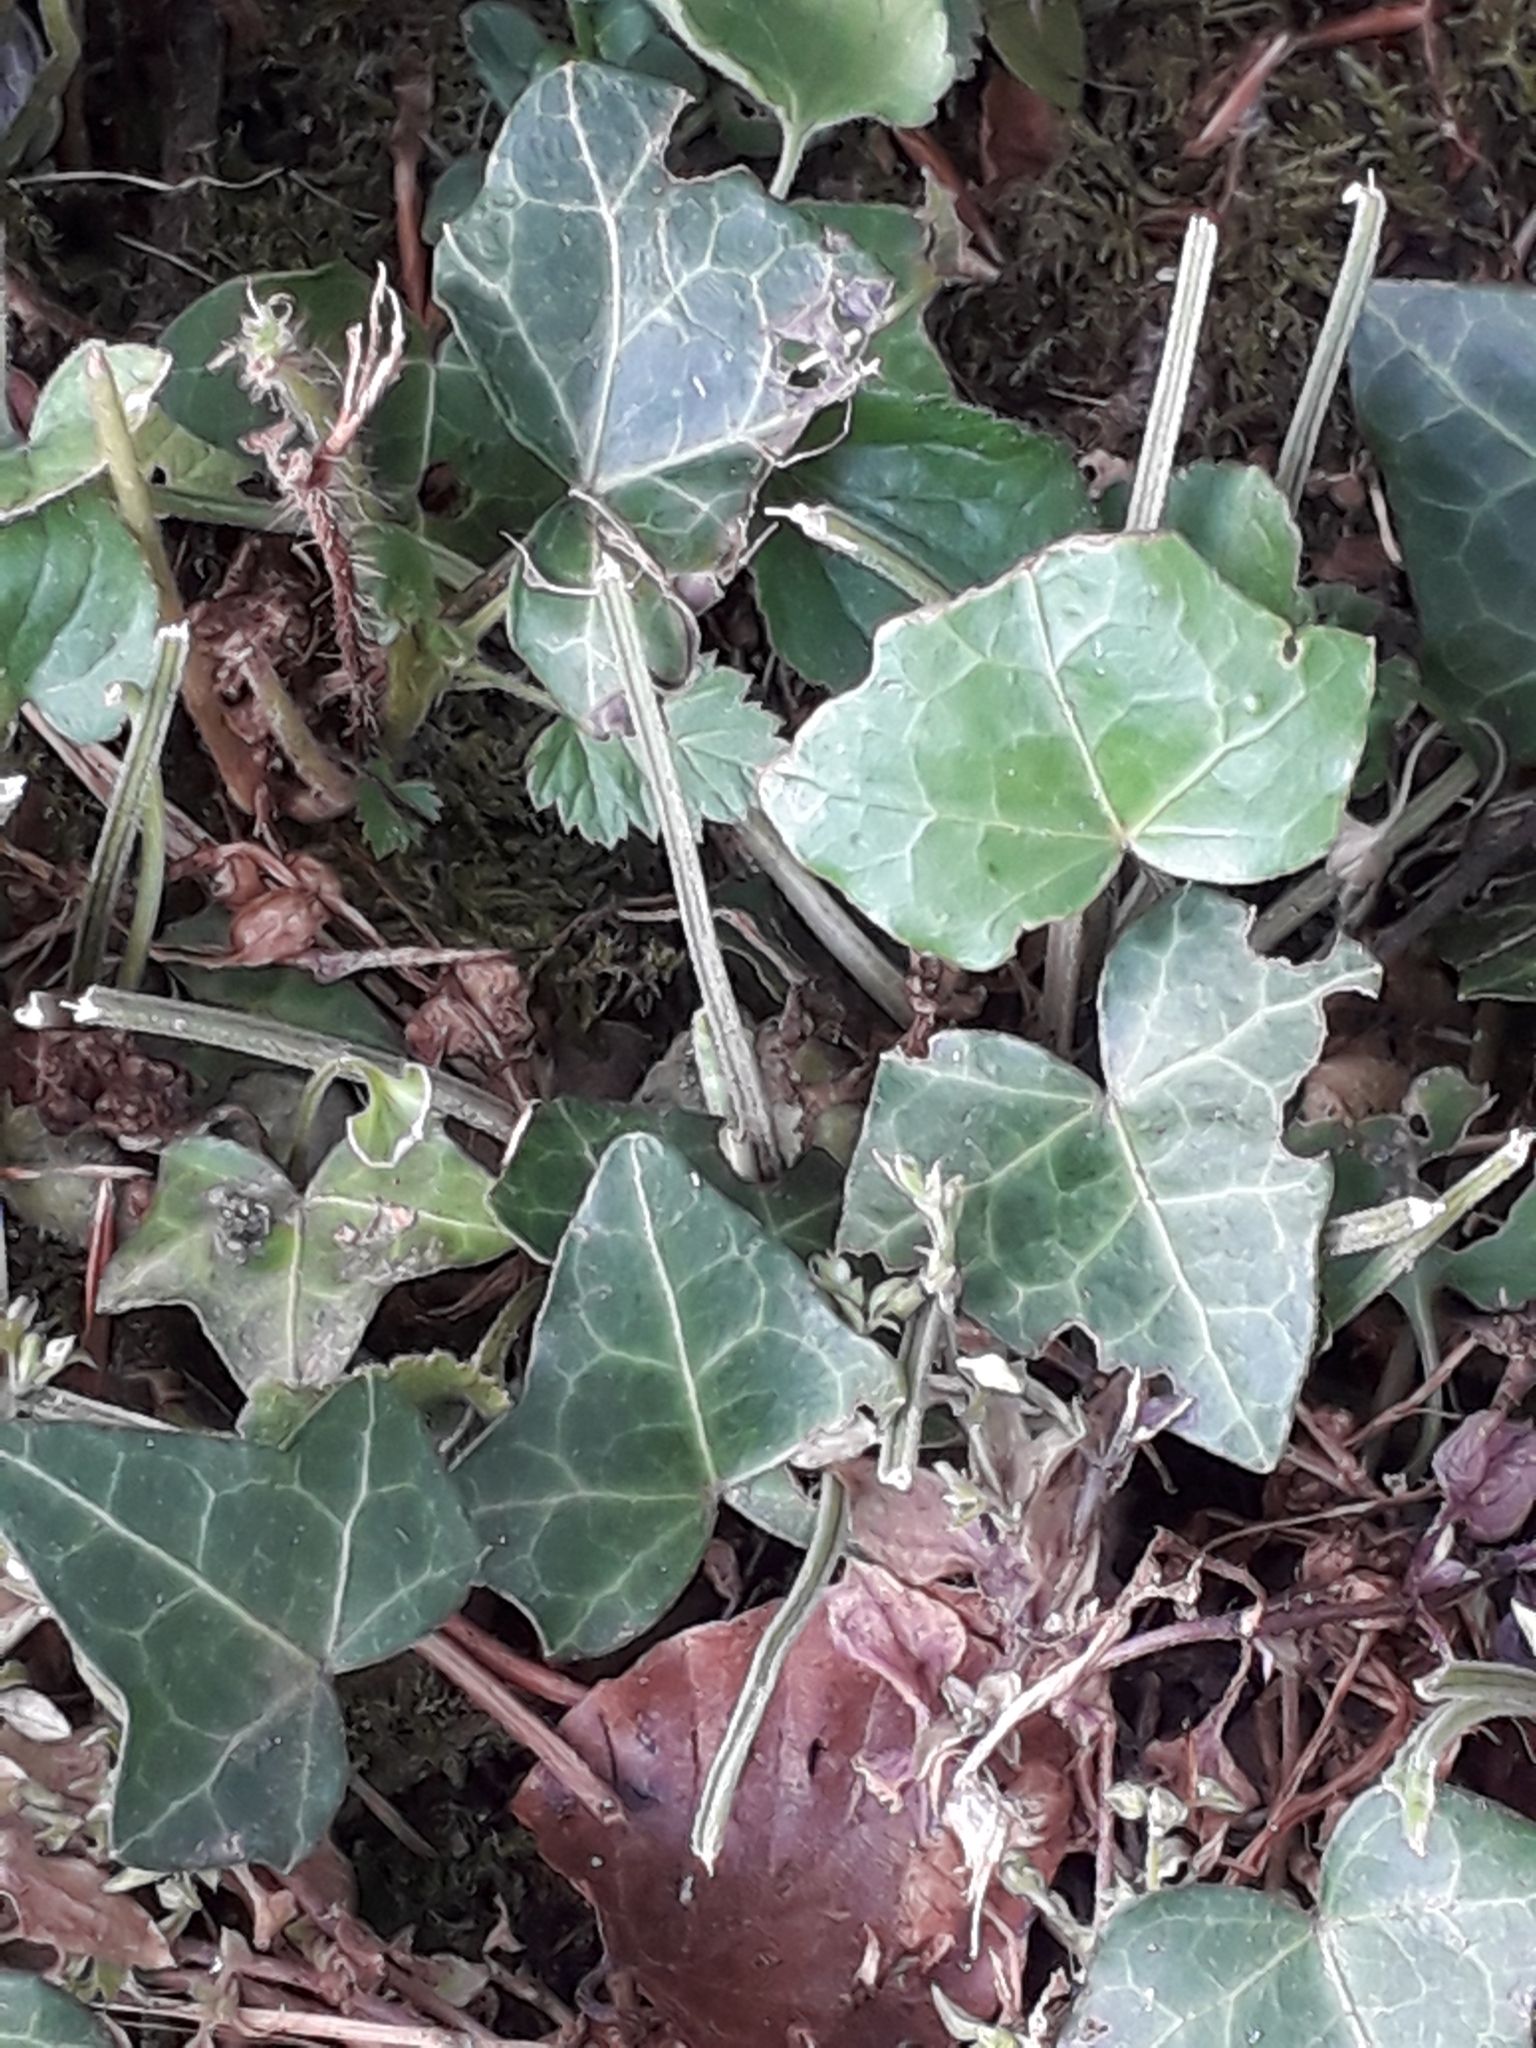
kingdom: Plantae
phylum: Tracheophyta
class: Magnoliopsida
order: Apiales
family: Araliaceae
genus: Hedera
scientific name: Hedera helix
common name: Ivy
